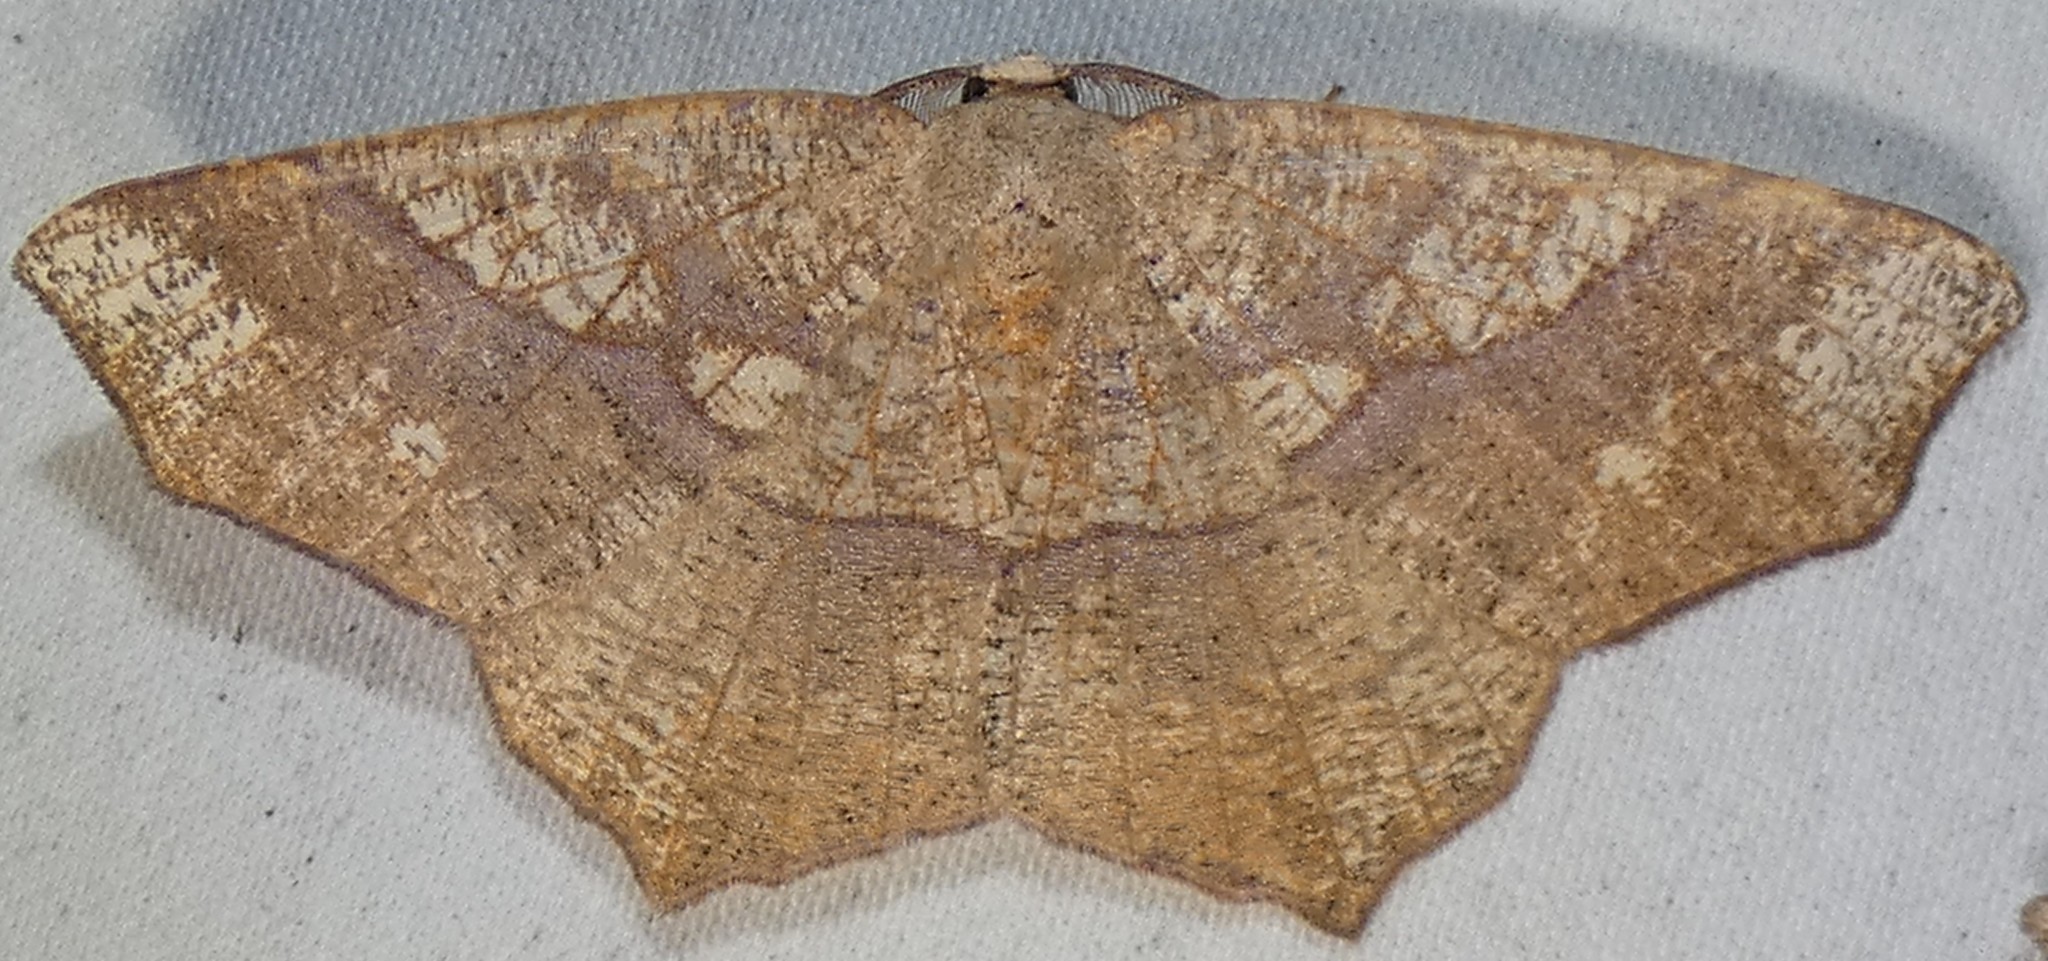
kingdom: Animalia
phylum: Arthropoda
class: Insecta
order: Lepidoptera
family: Geometridae
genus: Besma
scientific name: Besma quercivoraria
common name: Oak besma
